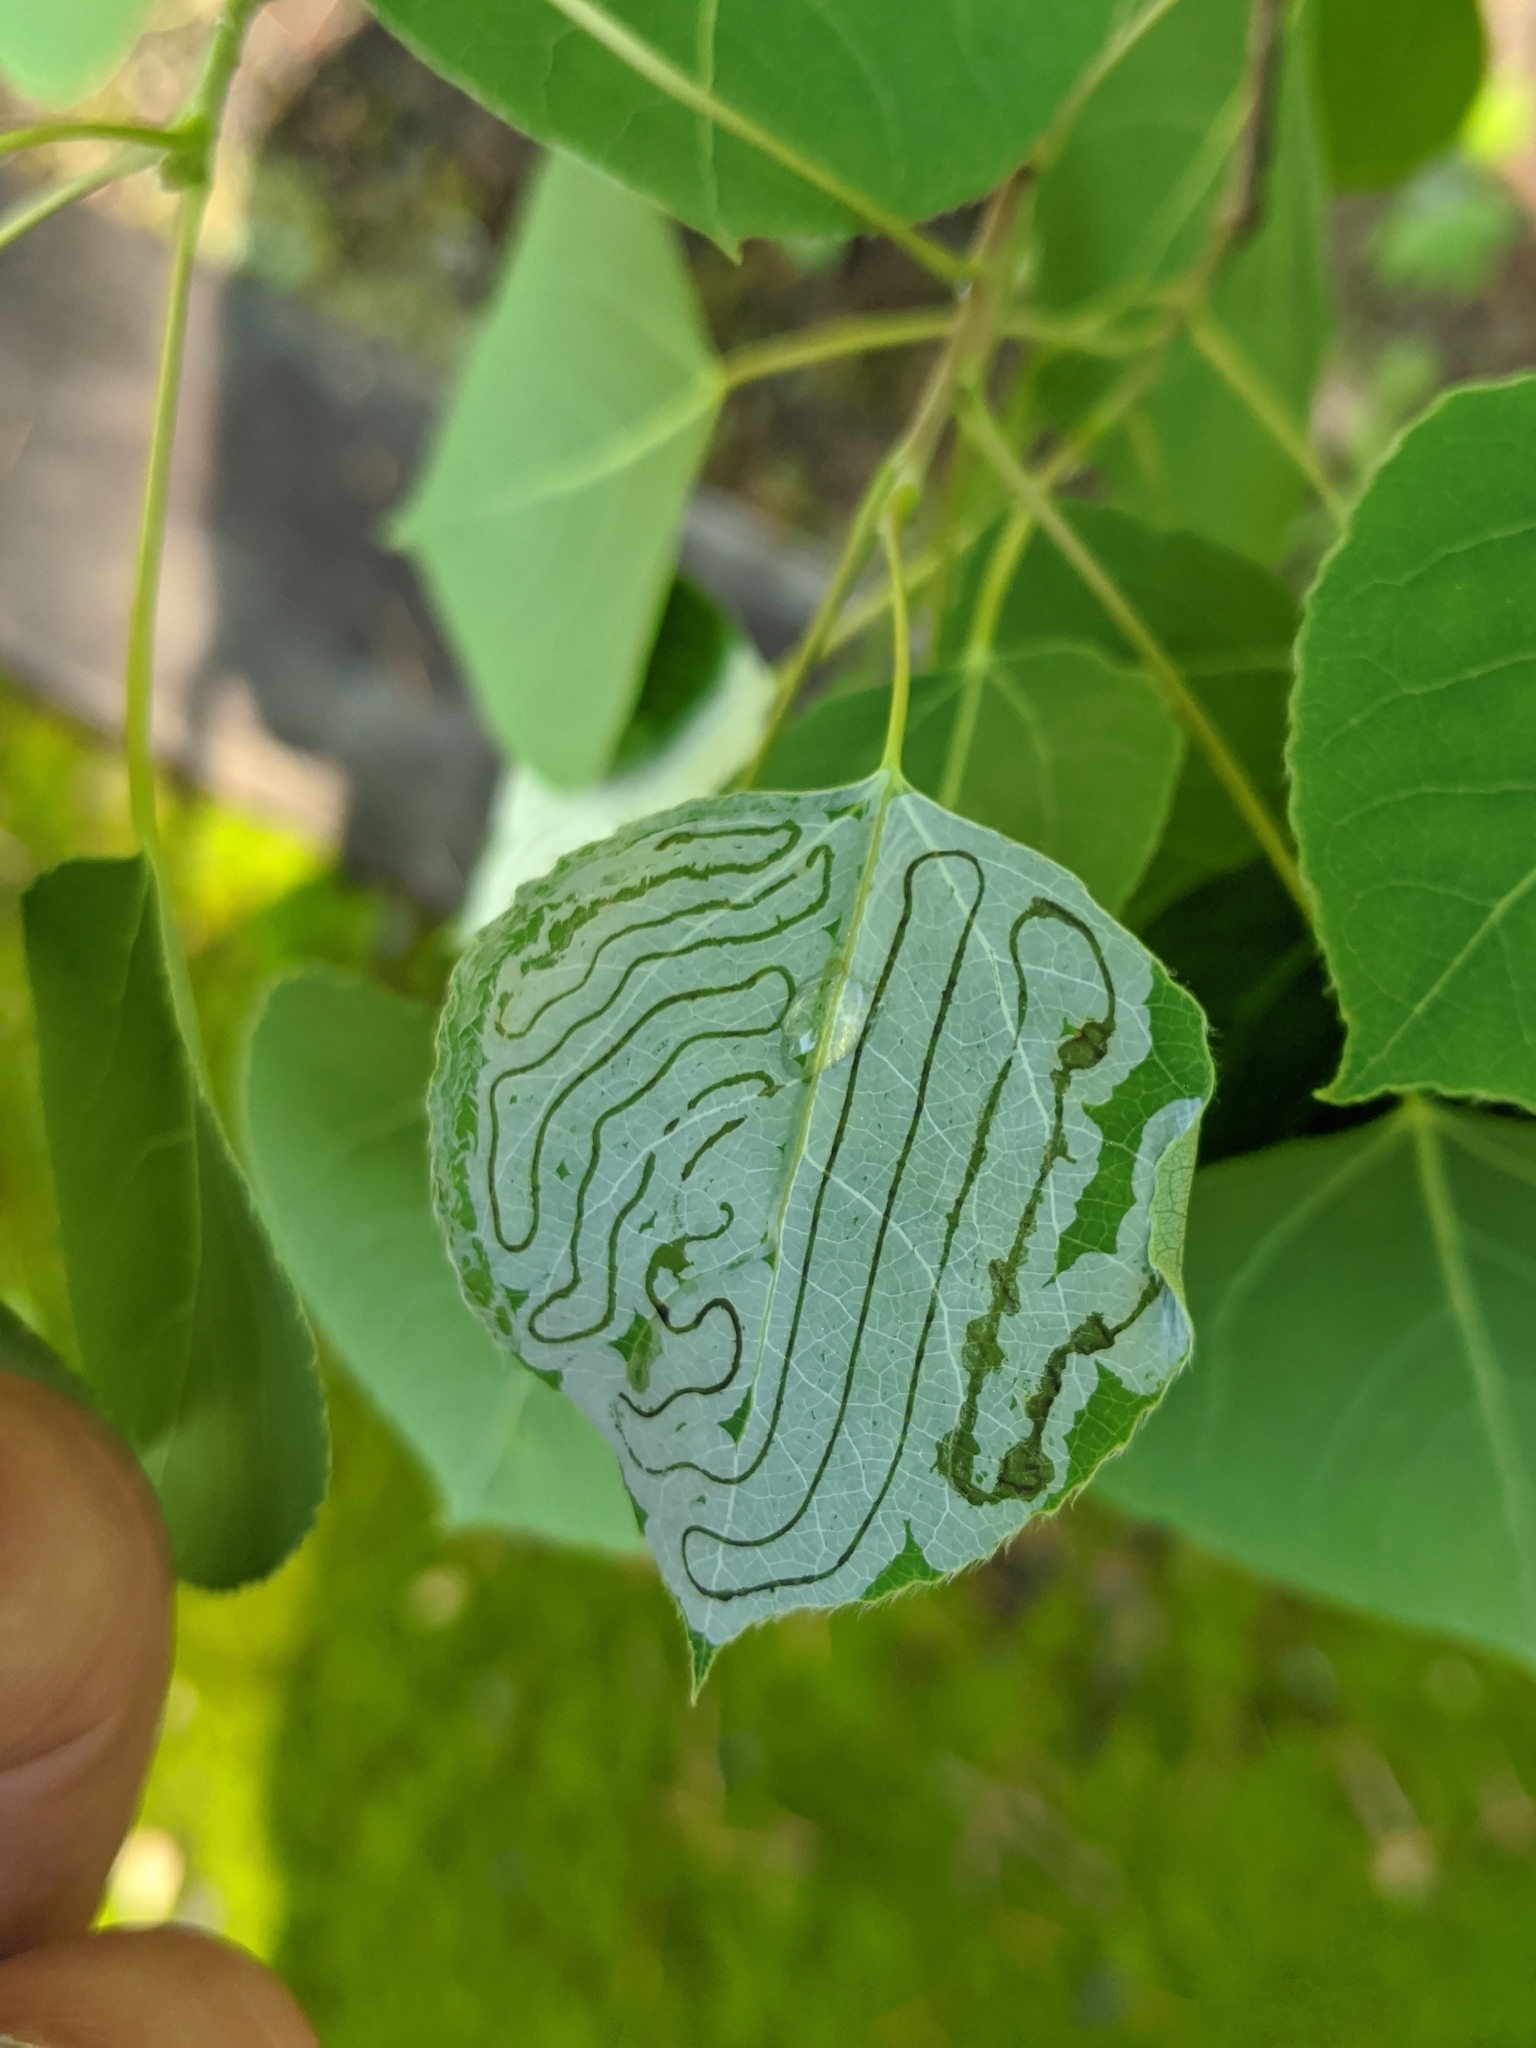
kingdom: Animalia
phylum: Arthropoda
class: Insecta
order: Lepidoptera
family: Gracillariidae
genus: Phyllocnistis
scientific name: Phyllocnistis populiella
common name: Aspen serpentine leafminer moth
